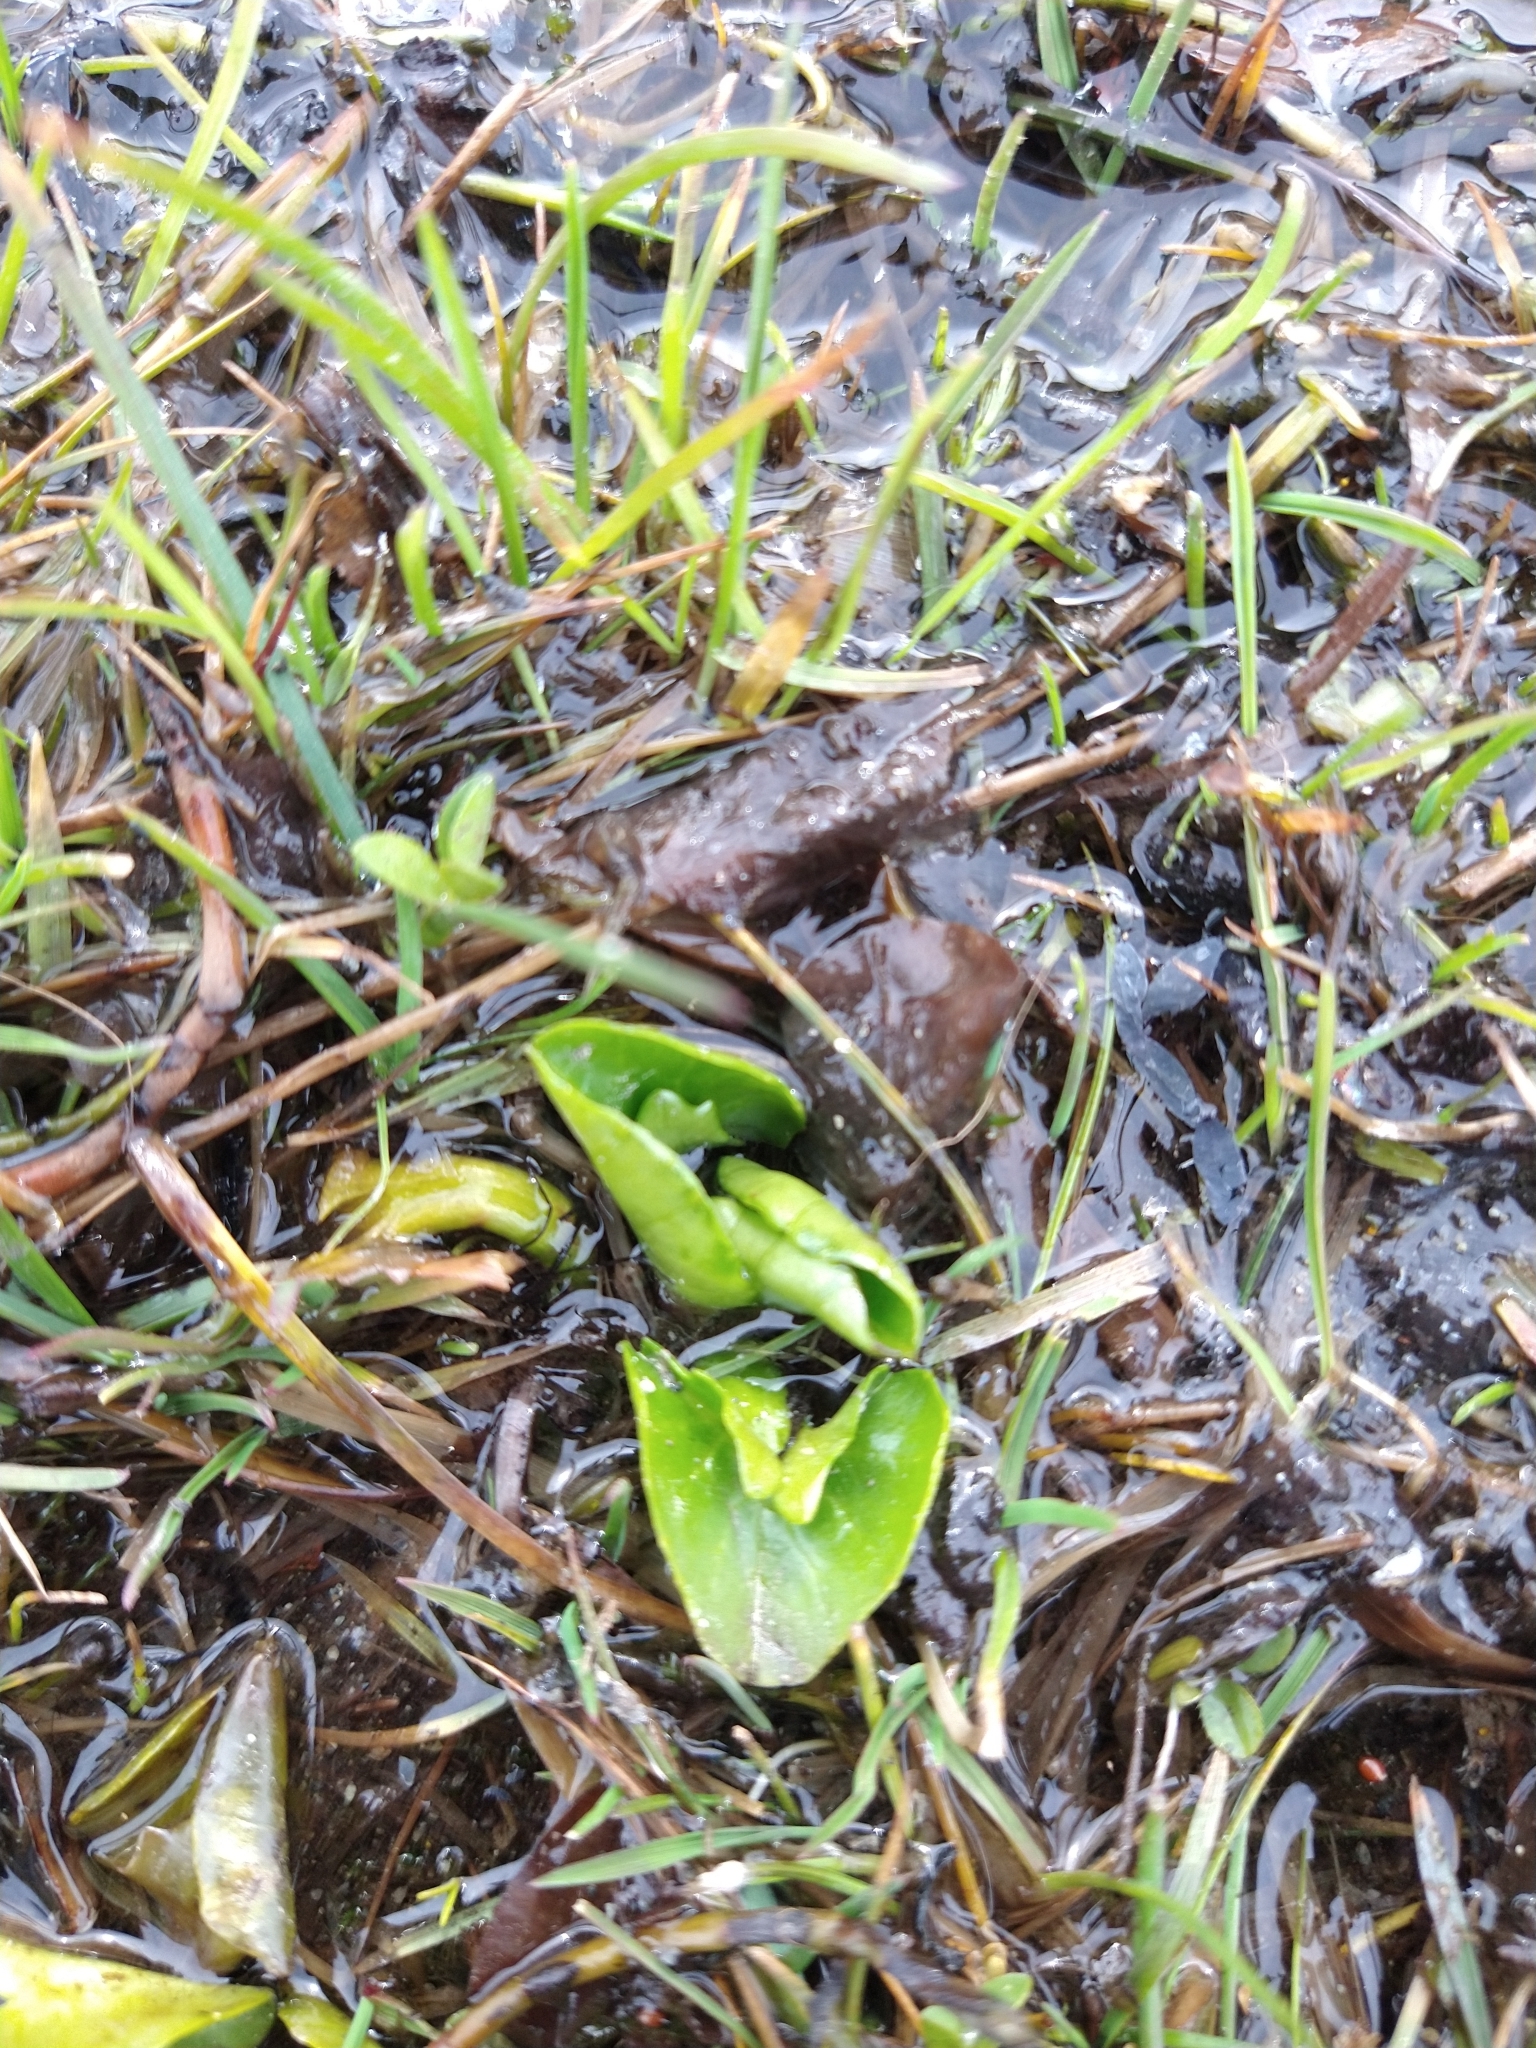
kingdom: Plantae
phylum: Tracheophyta
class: Magnoliopsida
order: Ranunculales
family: Ranunculaceae
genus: Caltha
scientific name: Caltha sagittata
